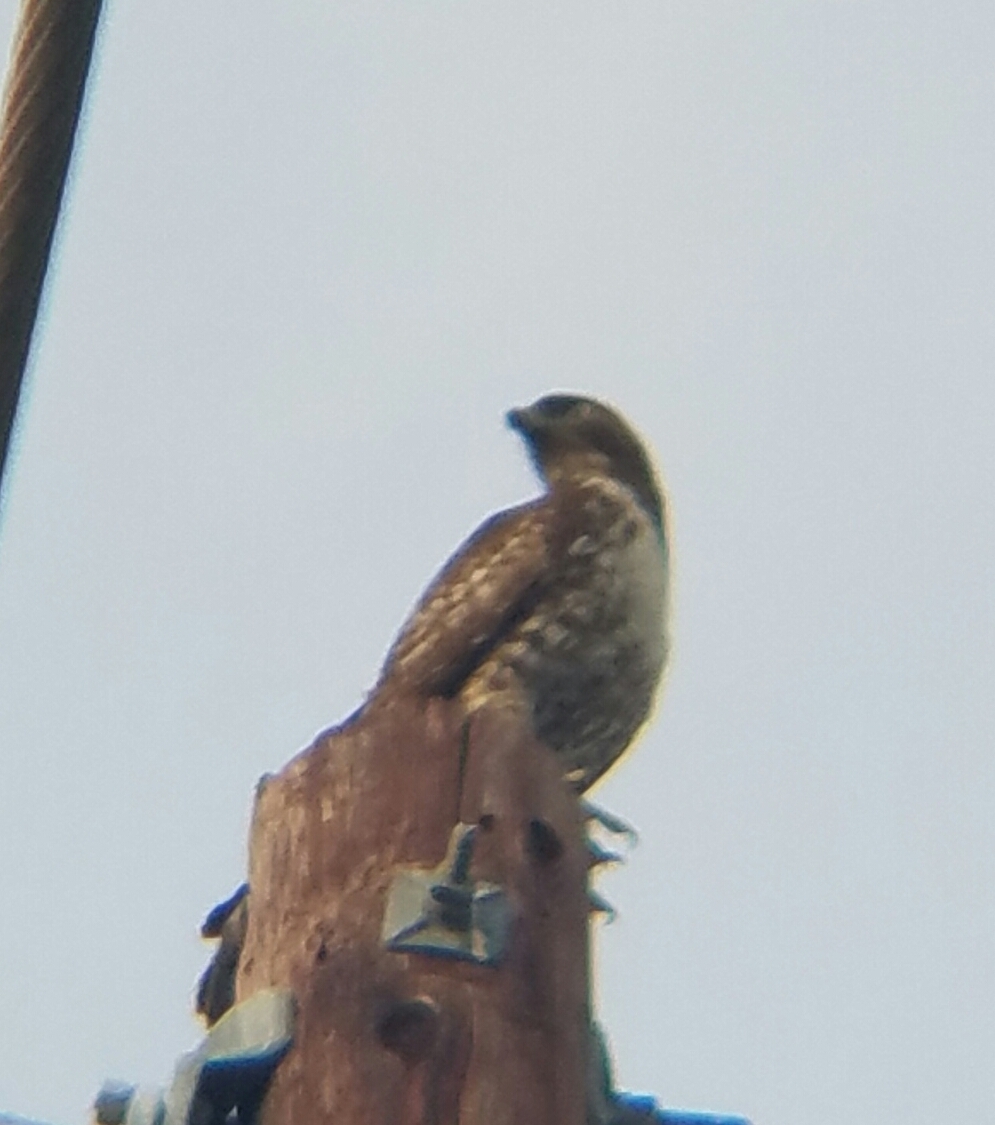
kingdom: Animalia
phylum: Chordata
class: Aves
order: Accipitriformes
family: Accipitridae
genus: Buteo
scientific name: Buteo jamaicensis
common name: Red-tailed hawk
